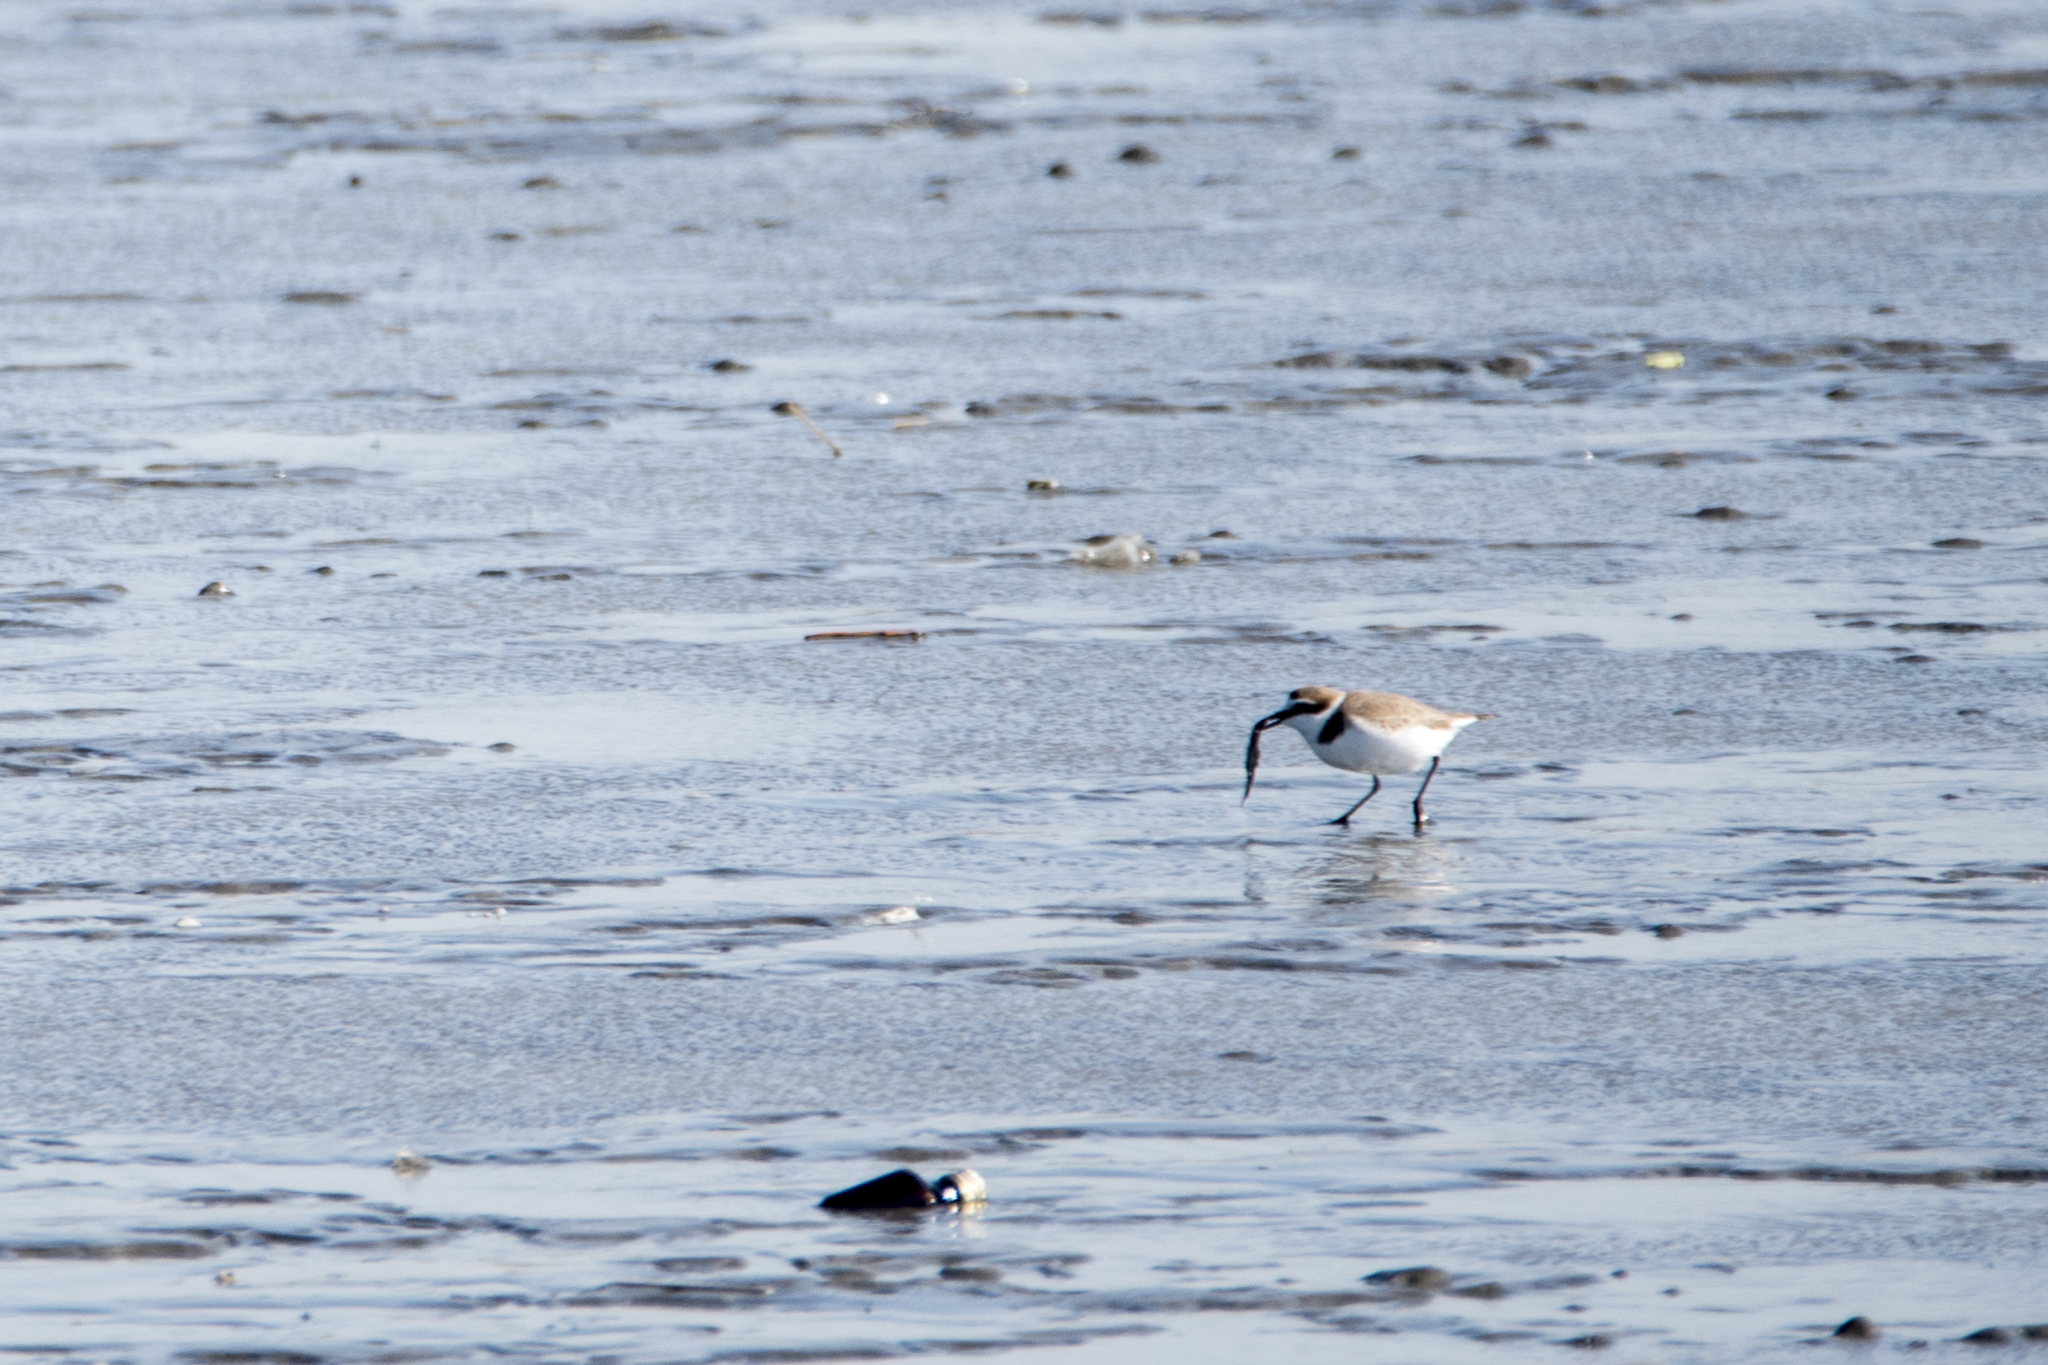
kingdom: Animalia
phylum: Chordata
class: Aves
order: Charadriiformes
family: Charadriidae
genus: Charadrius
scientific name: Charadrius alexandrinus
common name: Kentish plover
